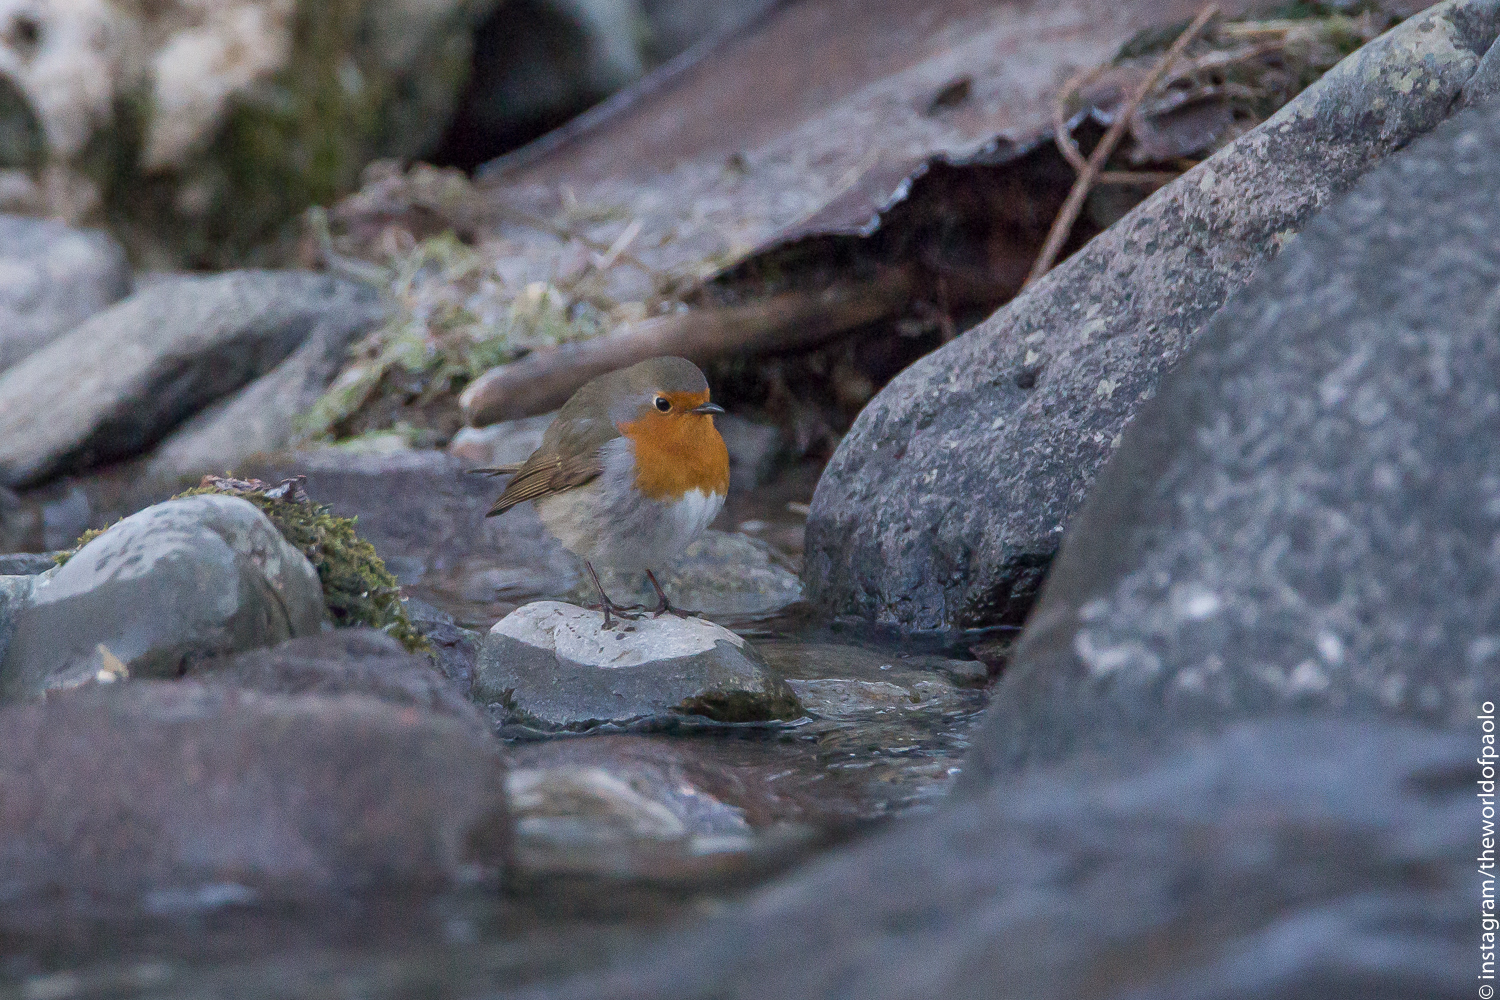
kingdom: Animalia
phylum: Chordata
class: Aves
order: Passeriformes
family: Muscicapidae
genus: Erithacus
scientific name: Erithacus rubecula
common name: European robin
